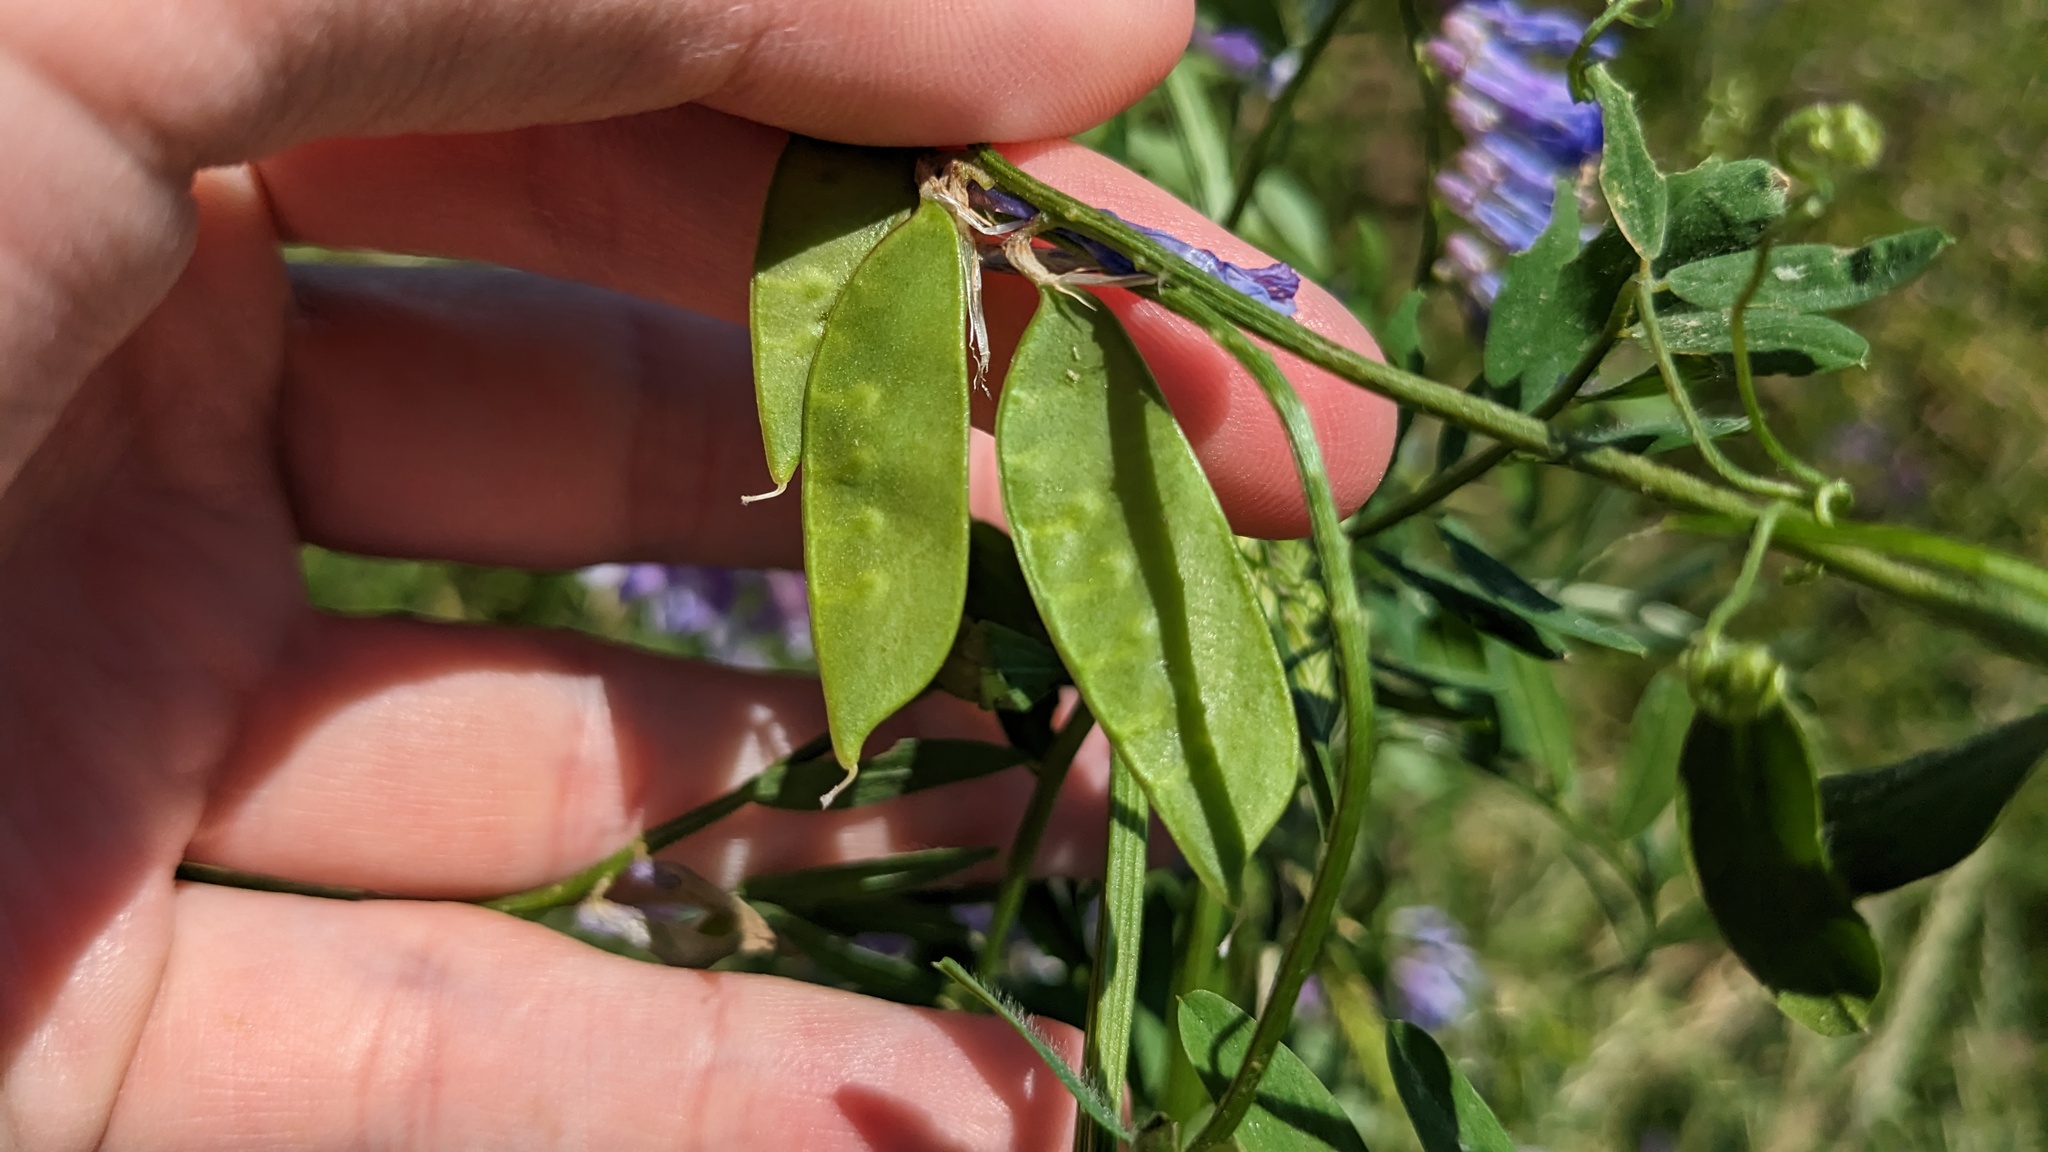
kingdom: Plantae
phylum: Tracheophyta
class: Magnoliopsida
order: Fabales
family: Fabaceae
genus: Vicia
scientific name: Vicia villosa
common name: Fodder vetch
